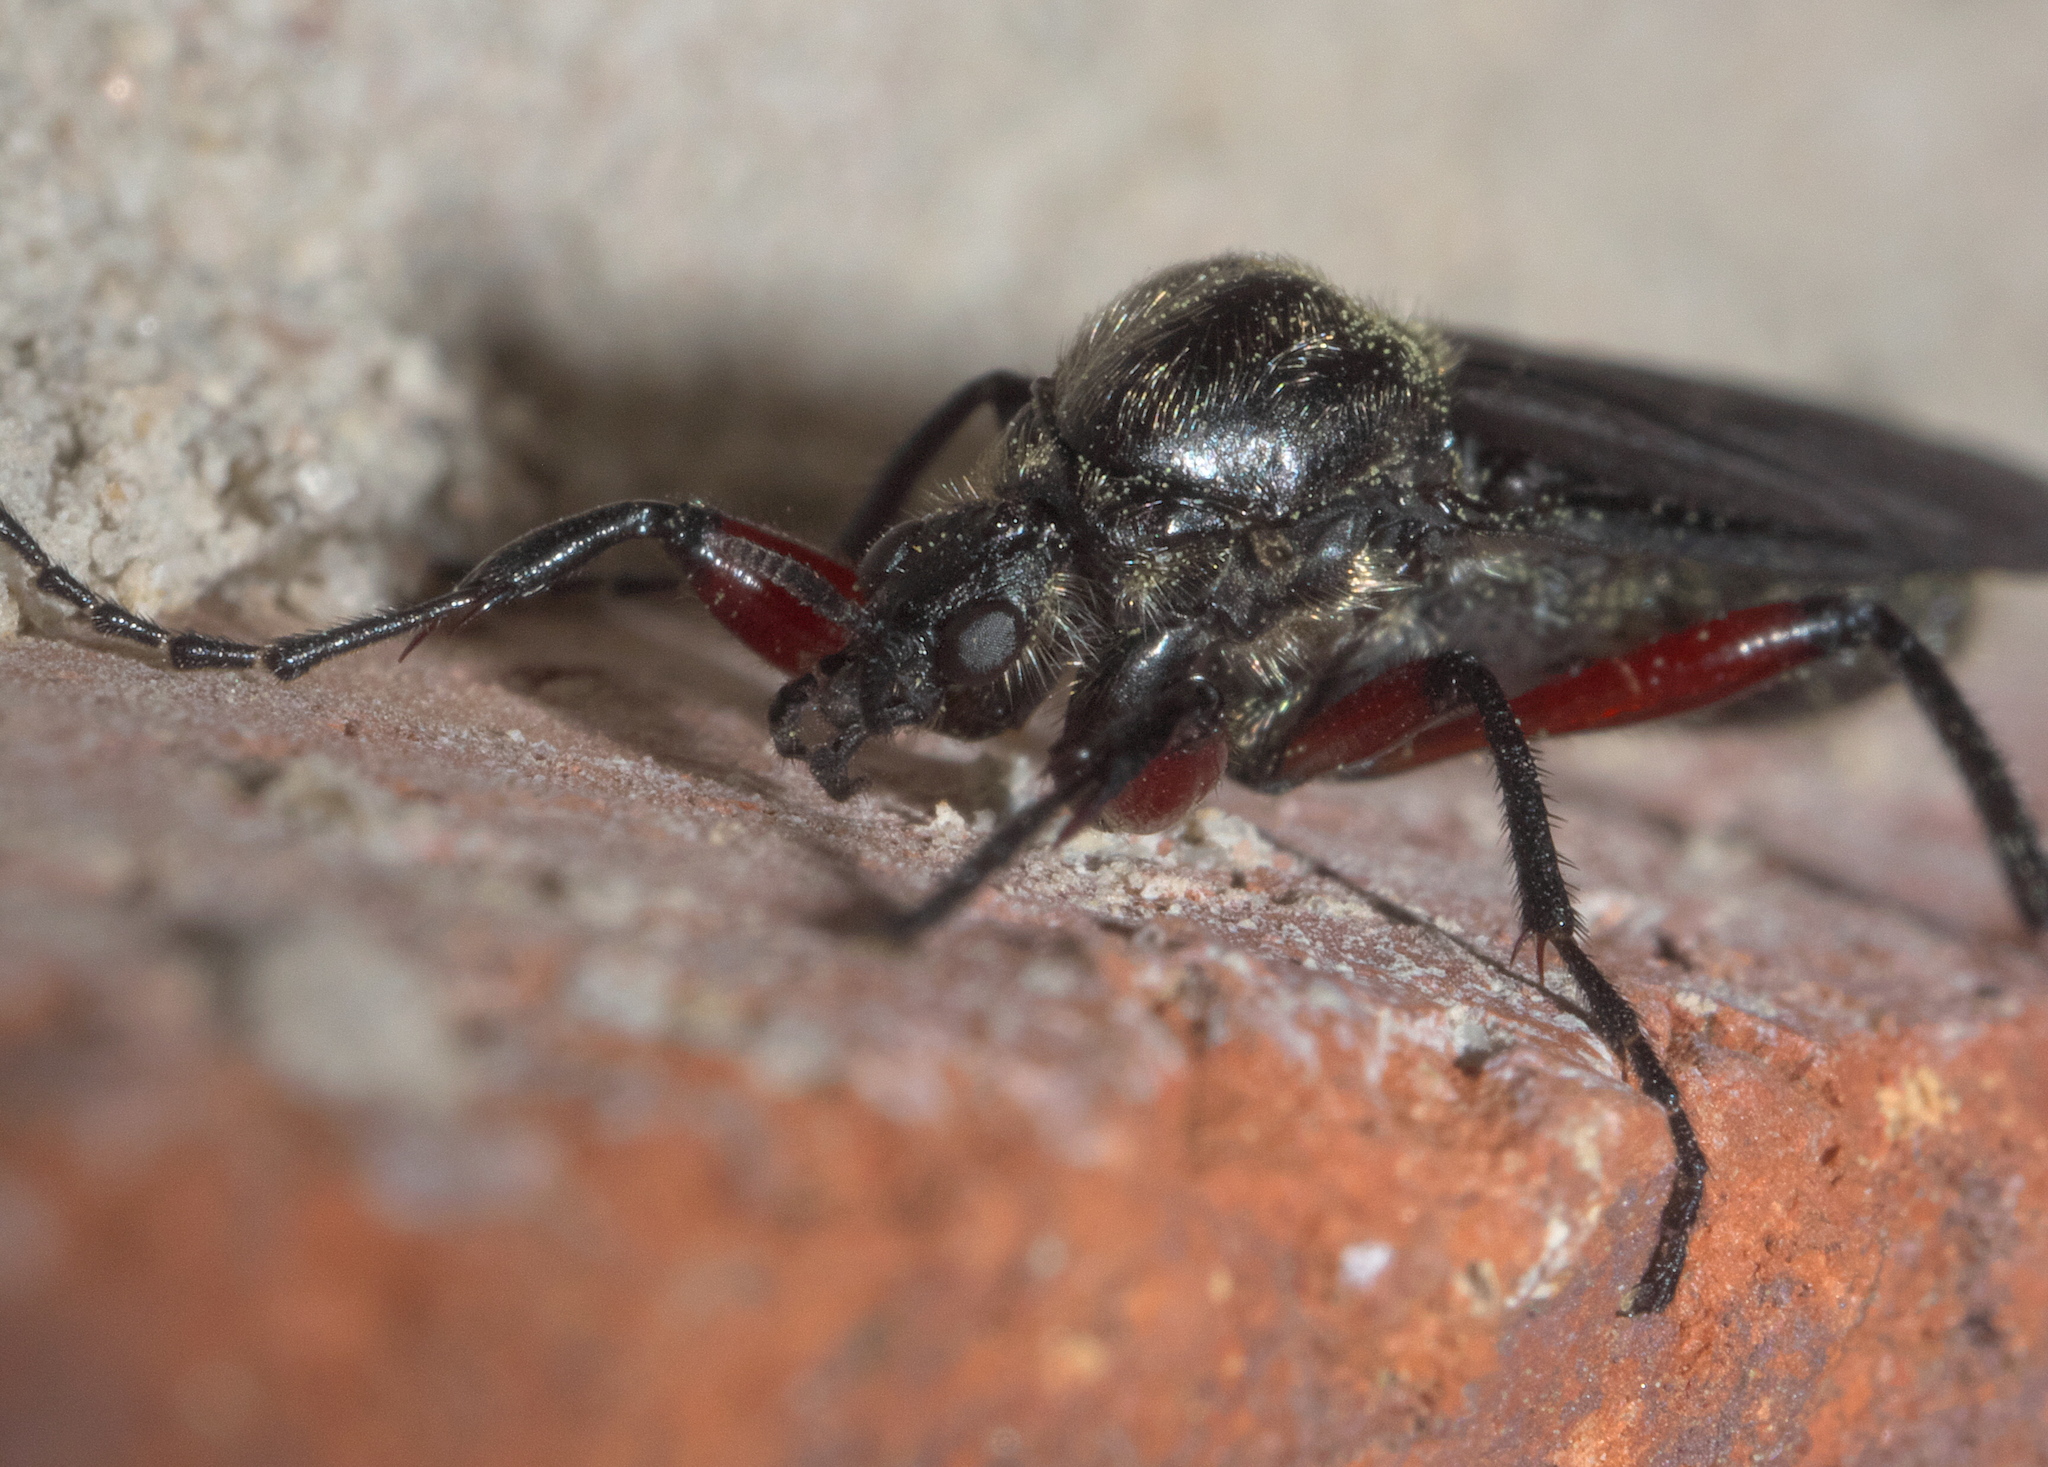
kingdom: Animalia
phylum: Arthropoda
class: Insecta
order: Diptera
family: Bibionidae
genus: Bibio
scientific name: Bibio femoratus
